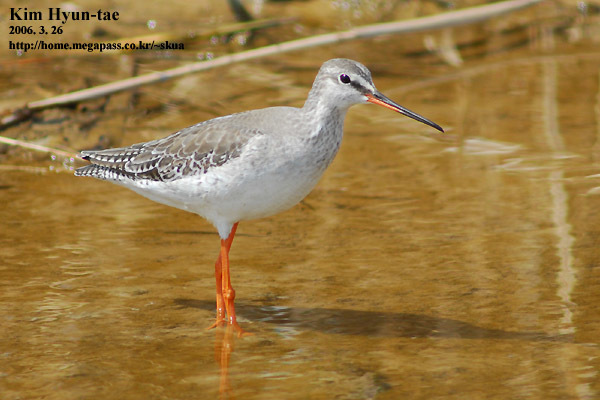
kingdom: Animalia
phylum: Chordata
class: Aves
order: Charadriiformes
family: Scolopacidae
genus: Tringa
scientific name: Tringa erythropus
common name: Spotted redshank
